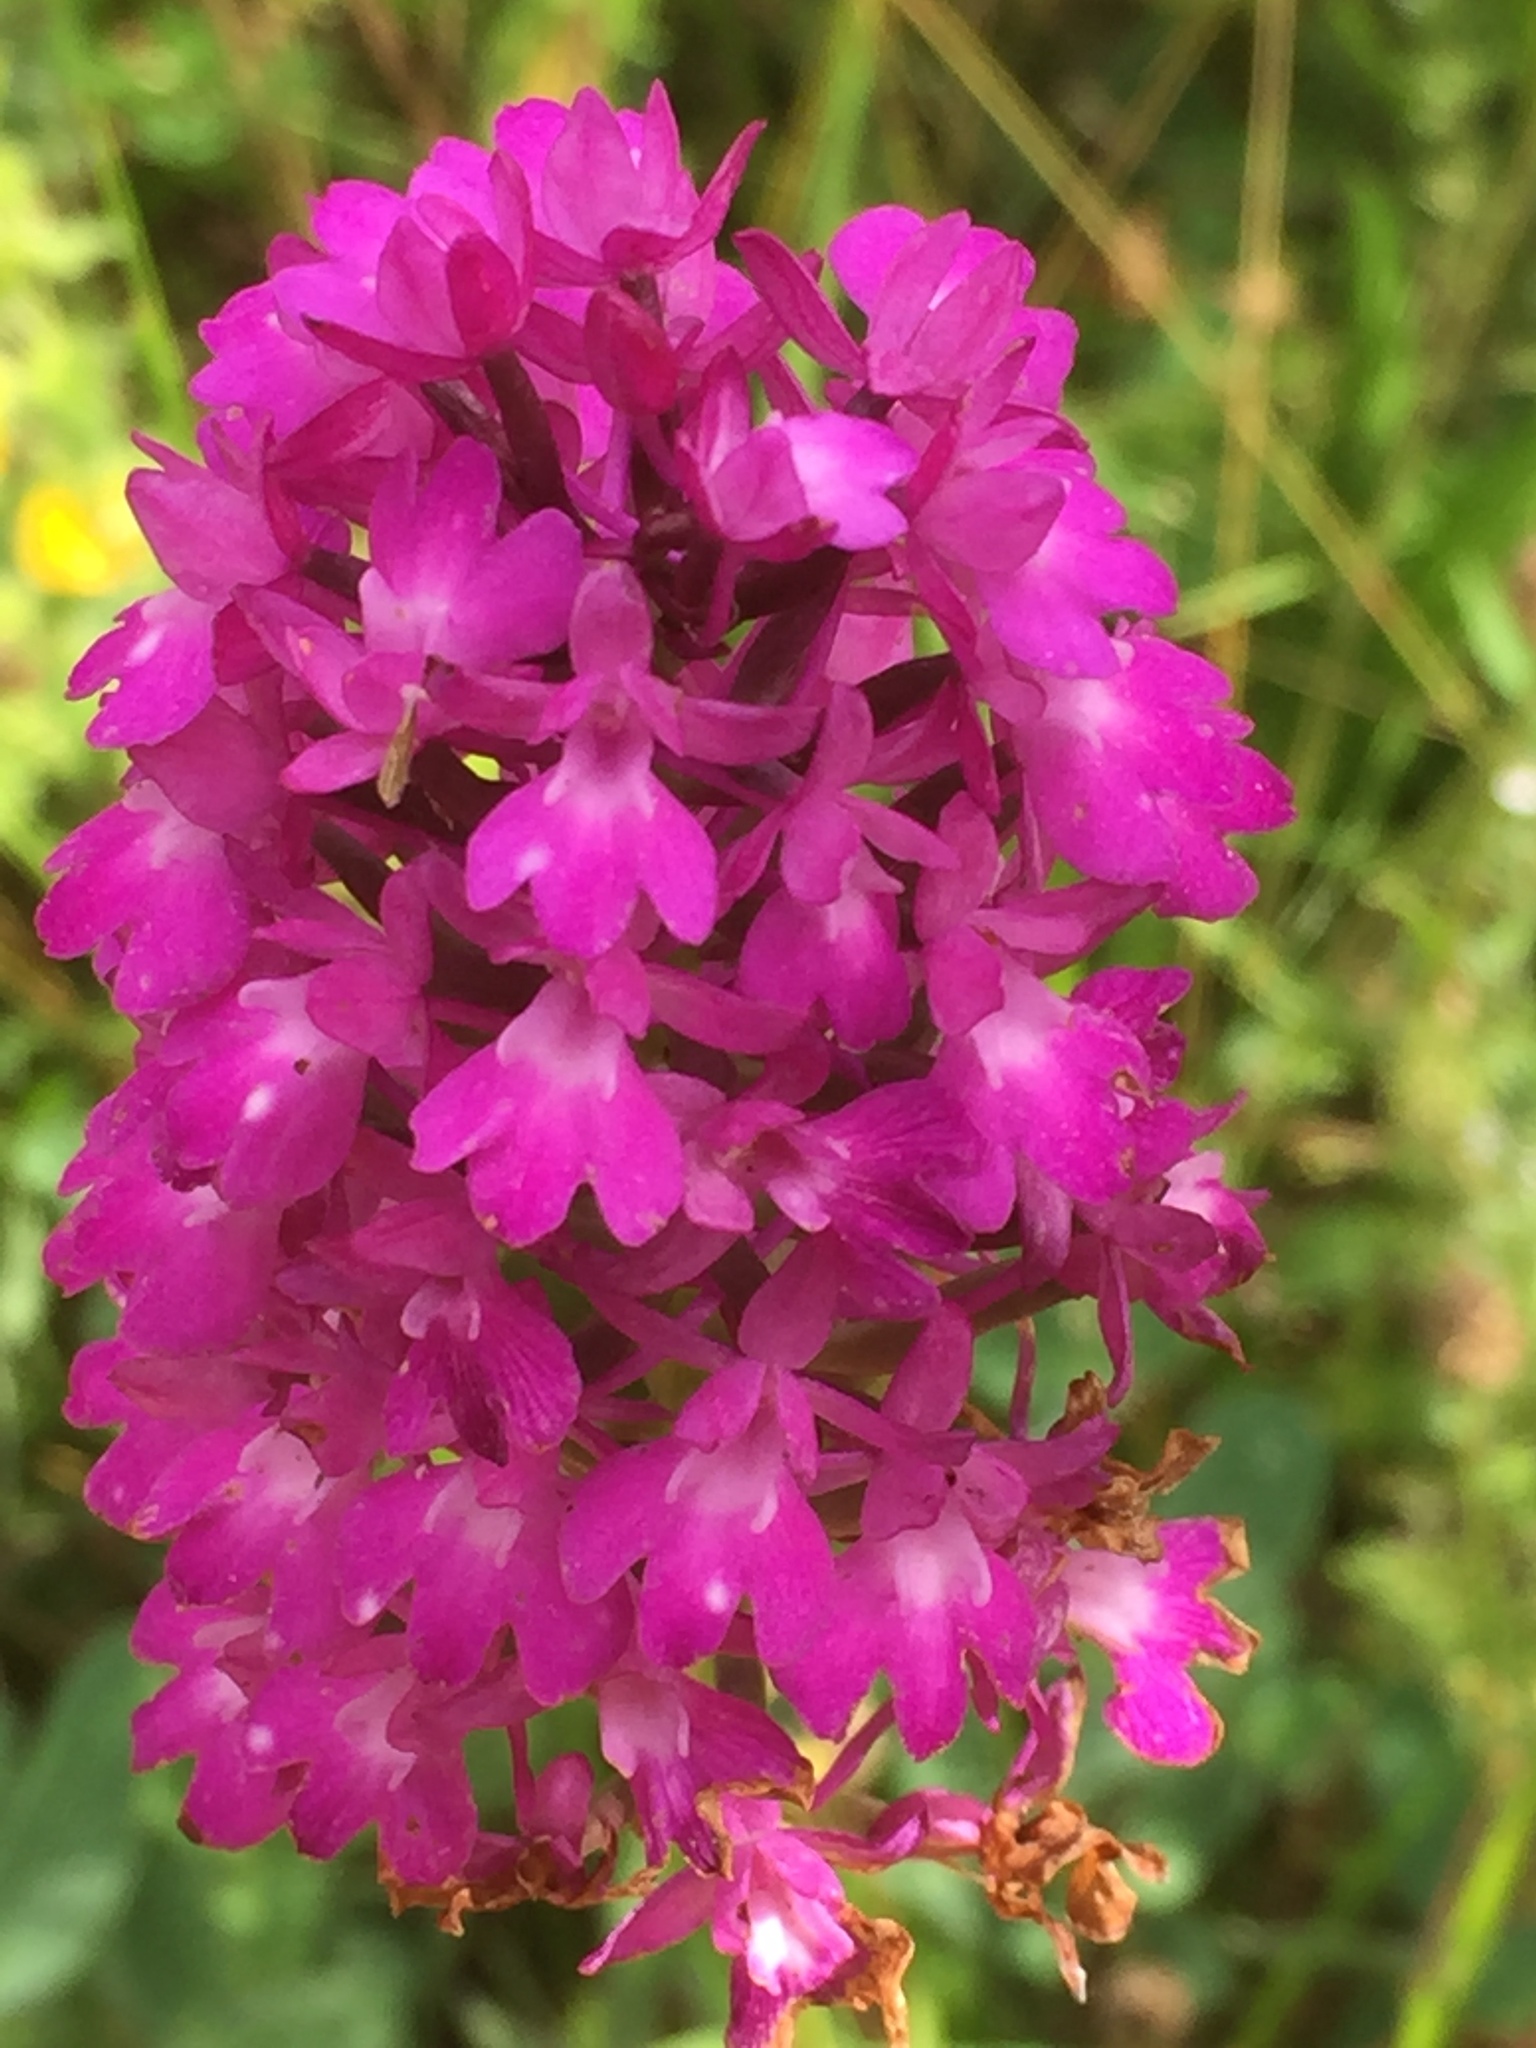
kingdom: Plantae
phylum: Tracheophyta
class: Liliopsida
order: Asparagales
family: Orchidaceae
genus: Anacamptis
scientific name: Anacamptis pyramidalis
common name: Pyramidal orchid
